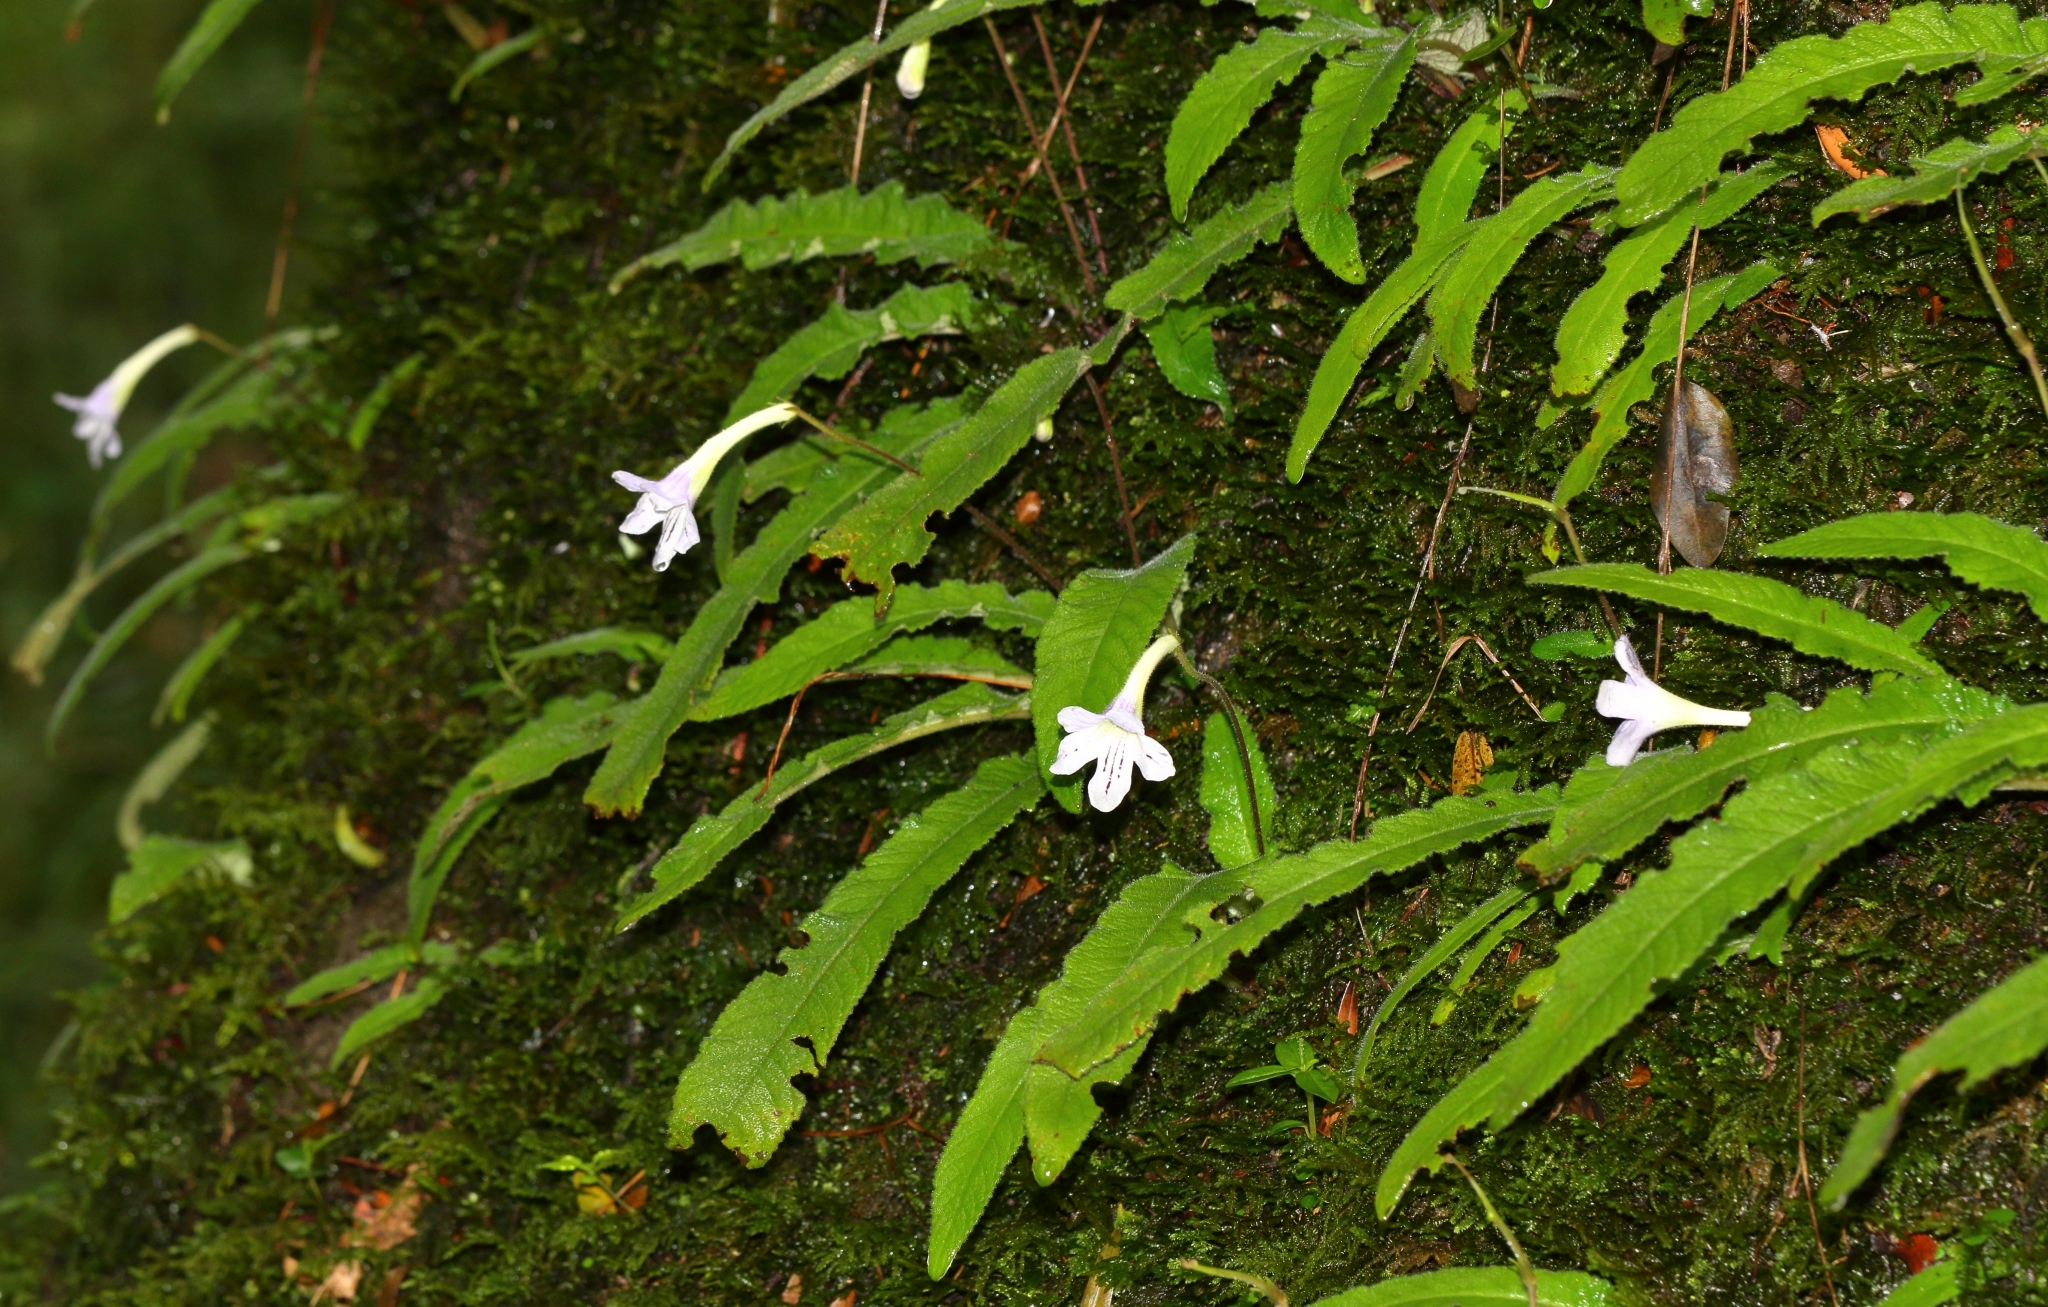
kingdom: Plantae
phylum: Tracheophyta
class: Magnoliopsida
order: Lamiales
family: Gesneriaceae
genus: Streptocarpus
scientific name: Streptocarpus gardenii
